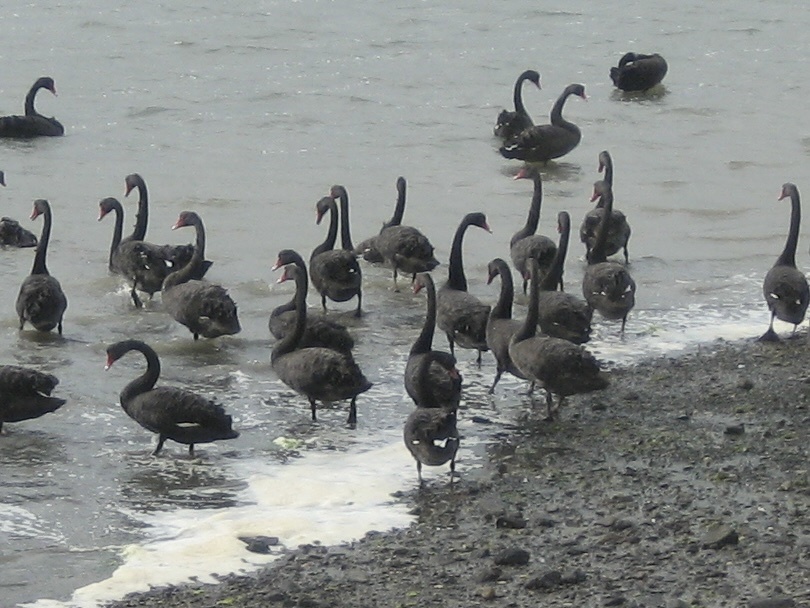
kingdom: Animalia
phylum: Chordata
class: Aves
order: Anseriformes
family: Anatidae
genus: Cygnus
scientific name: Cygnus atratus
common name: Black swan
